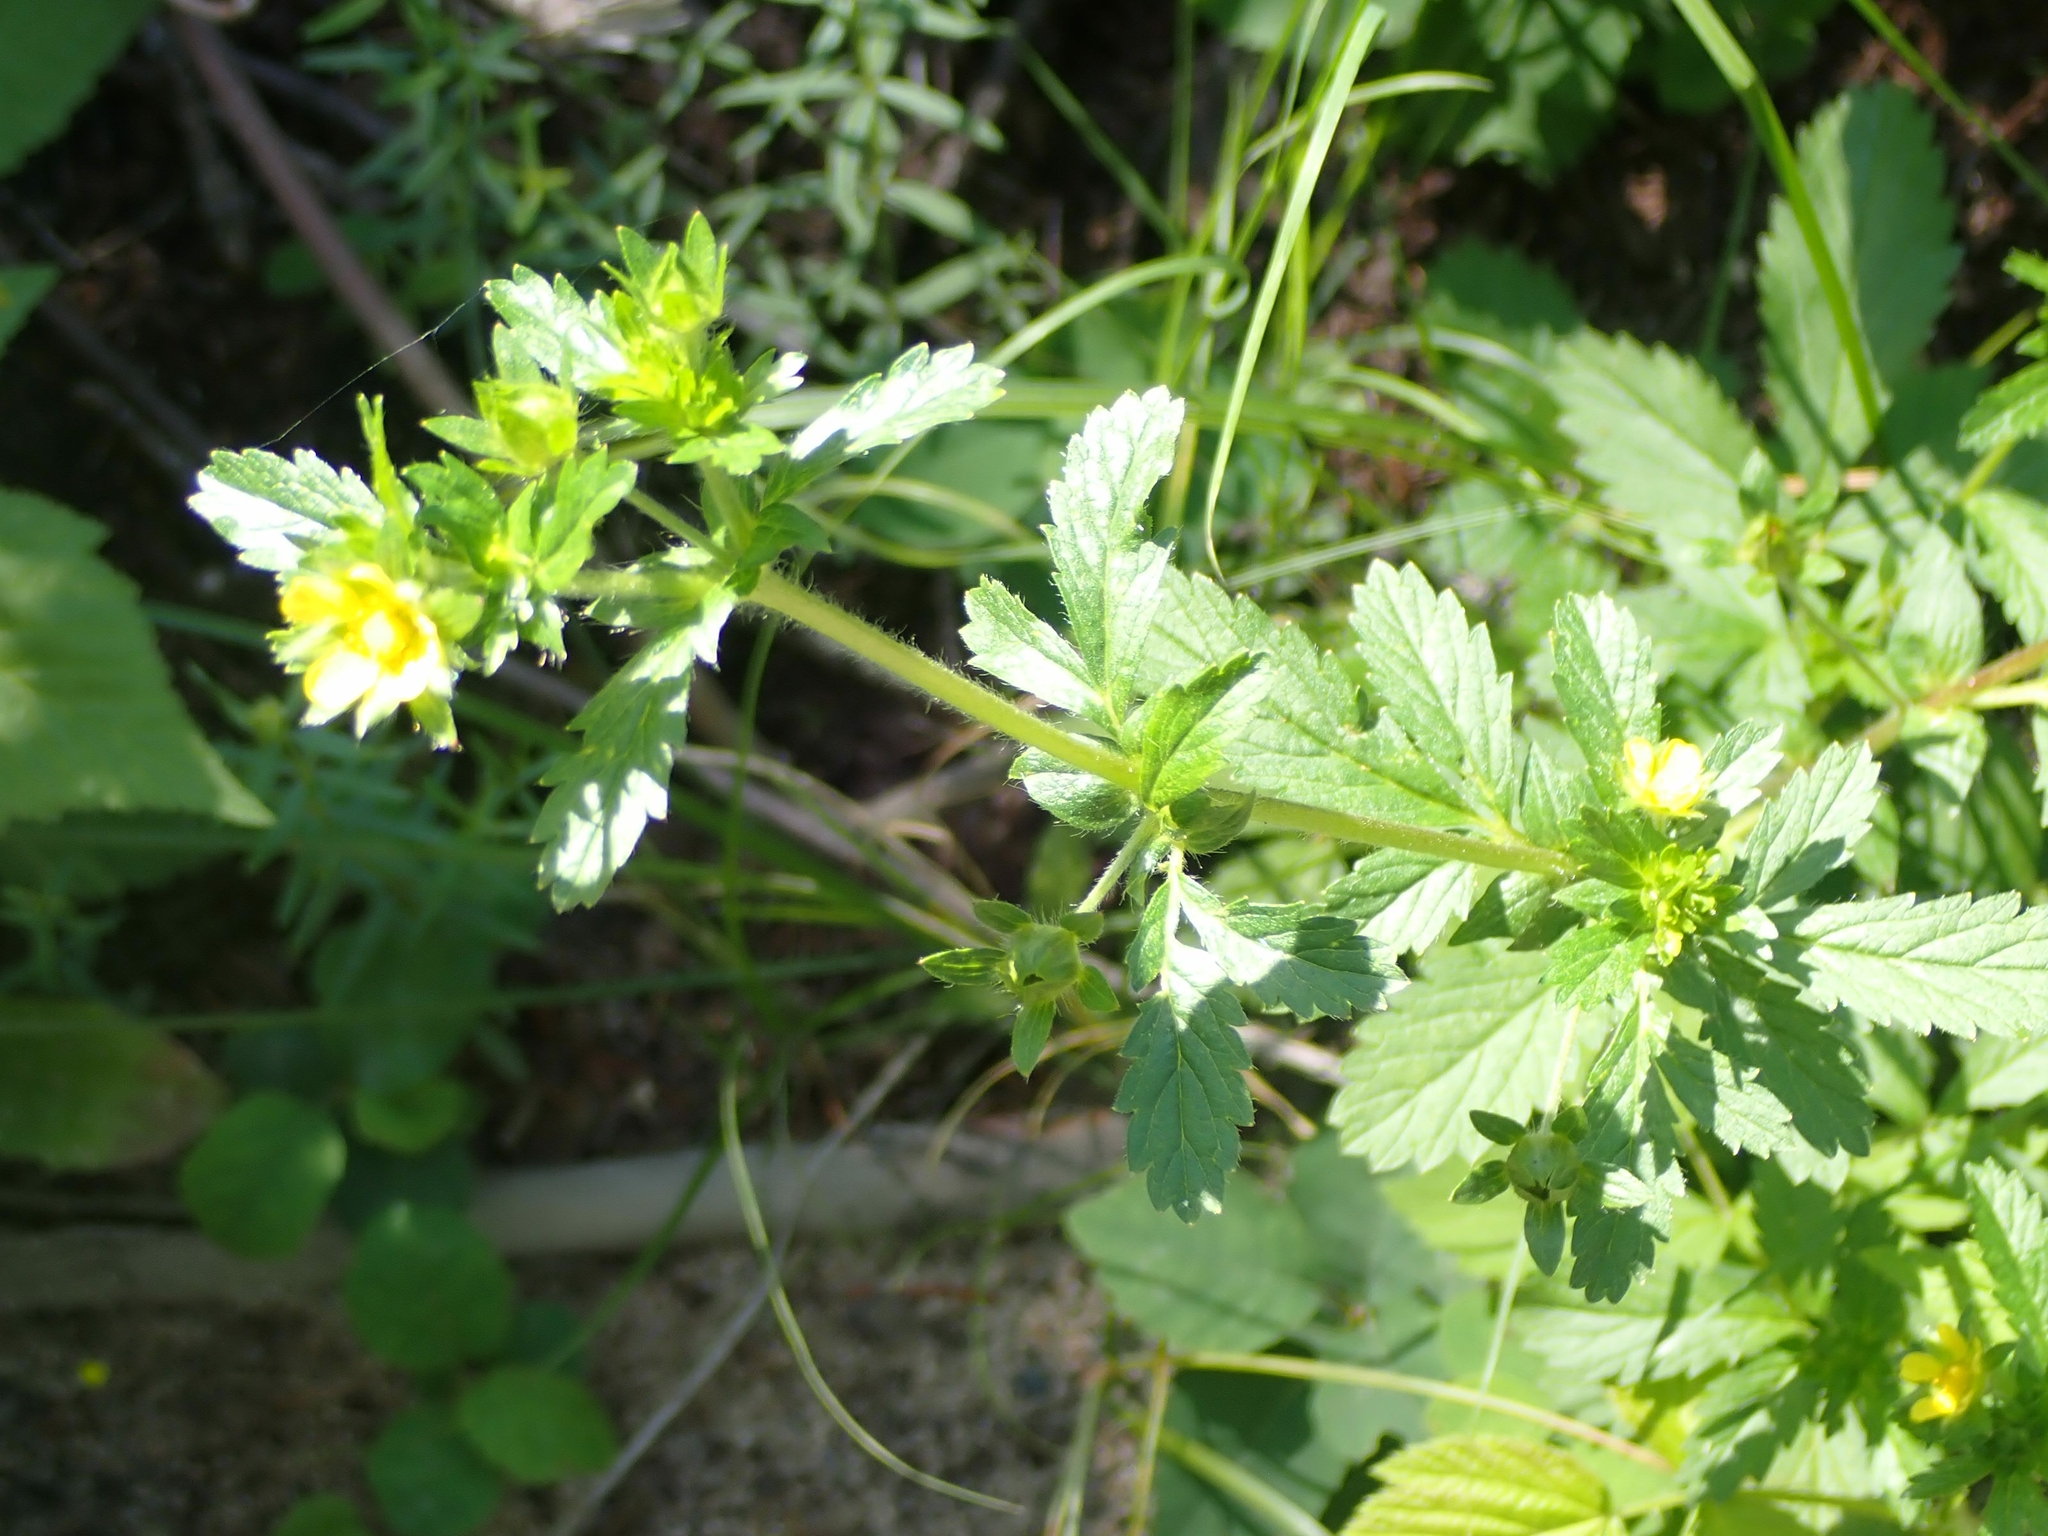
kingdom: Plantae
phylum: Tracheophyta
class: Magnoliopsida
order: Rosales
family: Rosaceae
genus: Potentilla
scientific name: Potentilla norvegica
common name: Ternate-leaved cinquefoil
